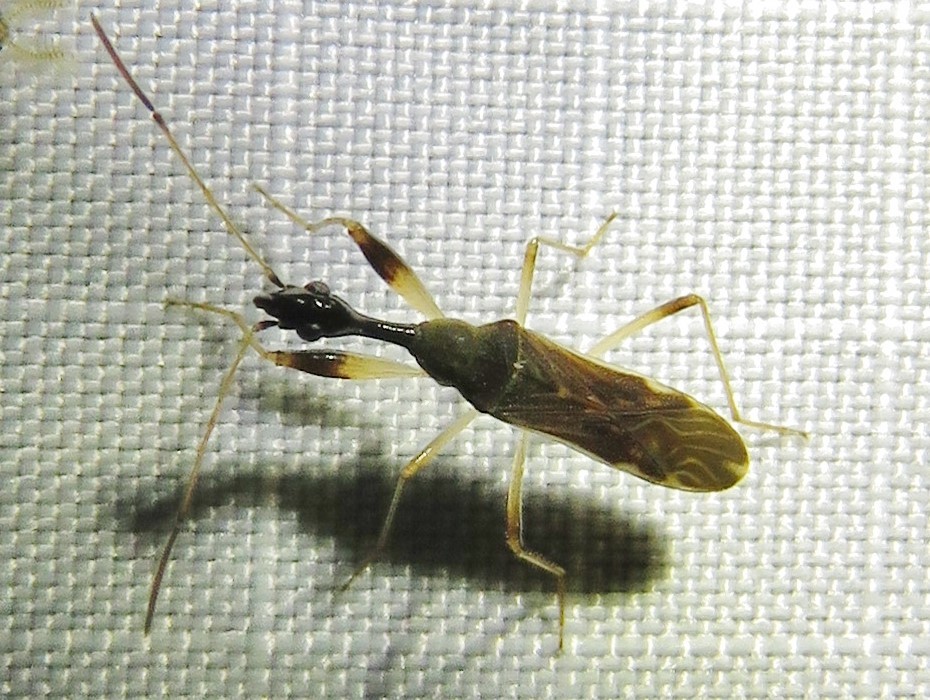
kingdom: Animalia
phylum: Arthropoda
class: Insecta
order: Hemiptera
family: Rhyparochromidae
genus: Myodocha
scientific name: Myodocha serripes
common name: Long-necked seed bug
